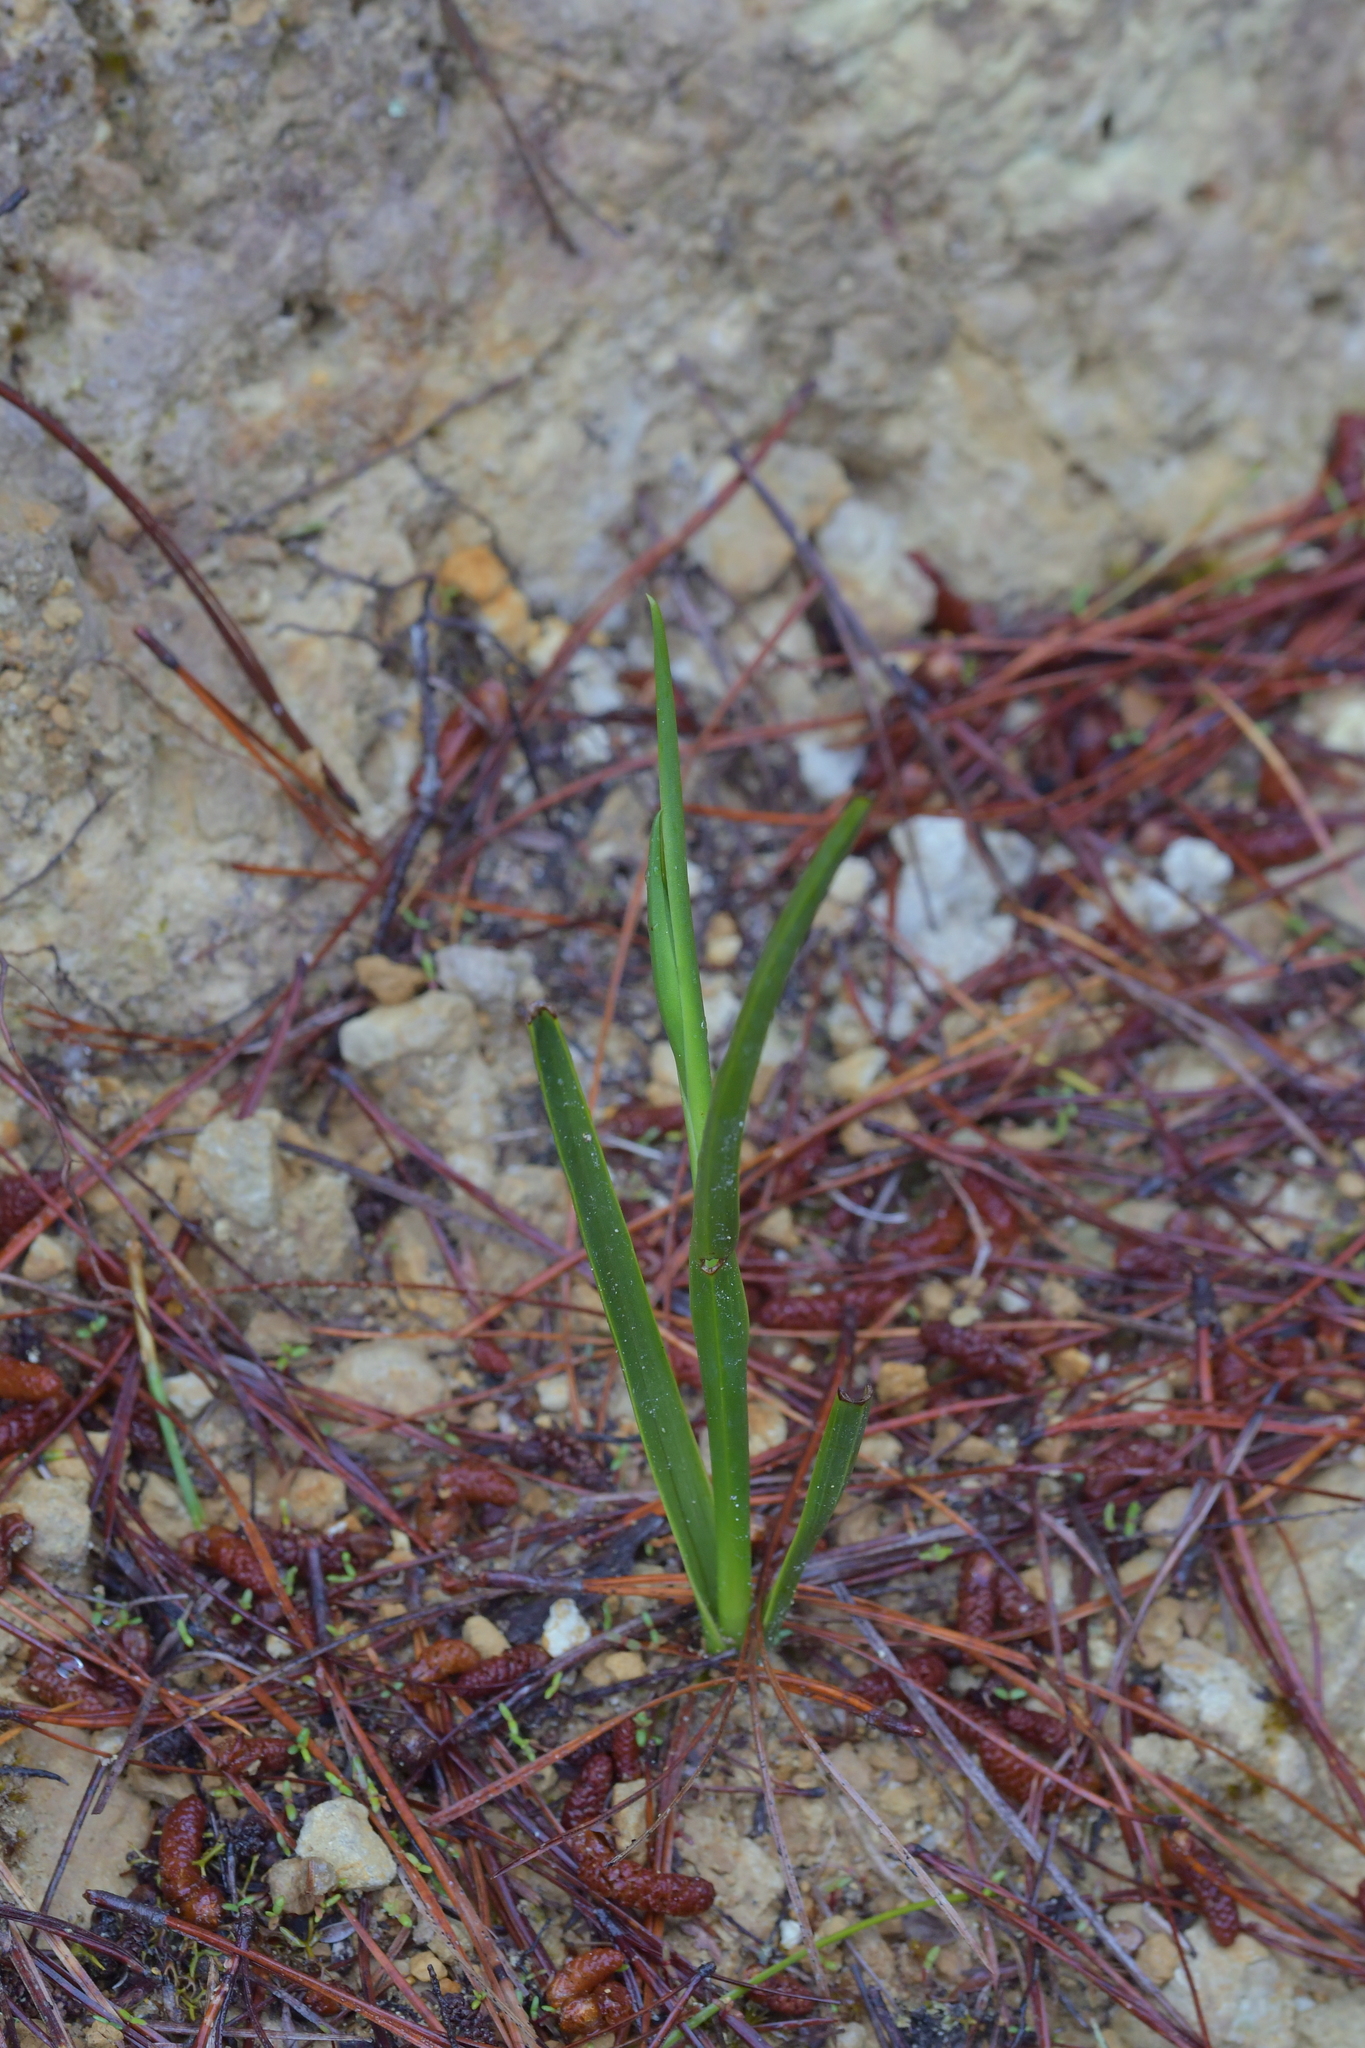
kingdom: Plantae
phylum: Tracheophyta
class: Liliopsida
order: Asparagales
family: Orchidaceae
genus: Orthoceras
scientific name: Orthoceras novae-zeelandiae
